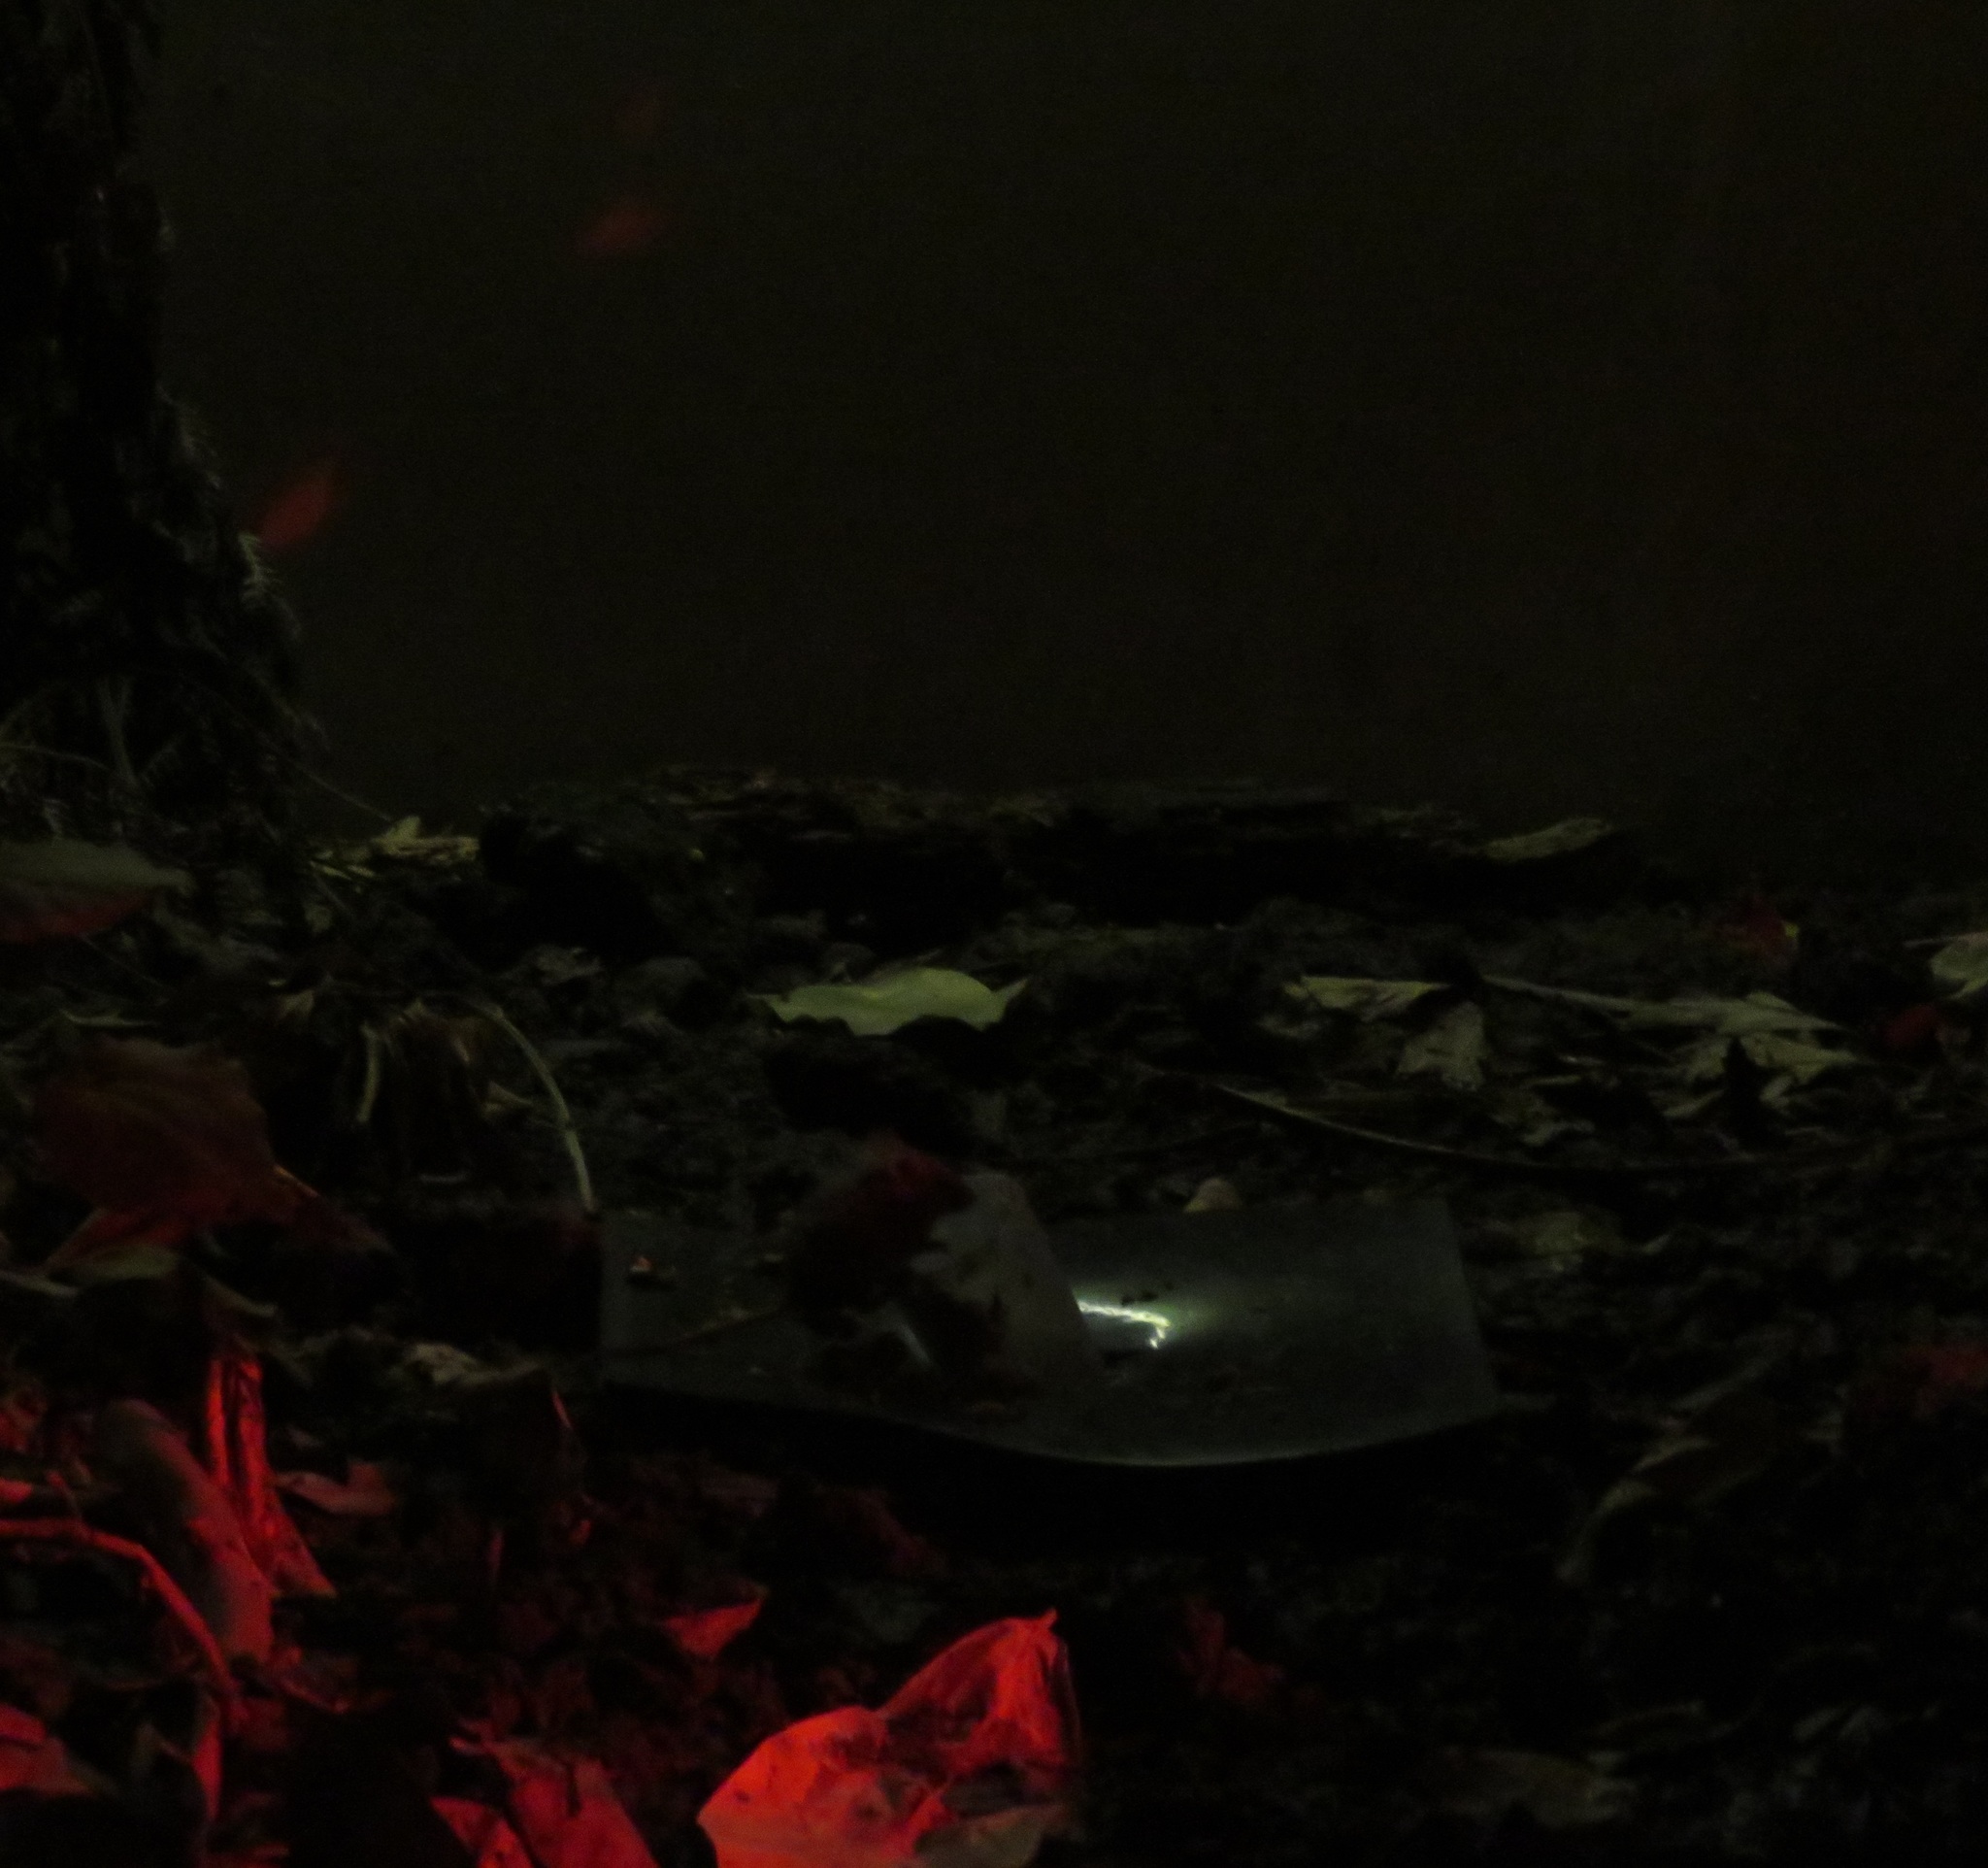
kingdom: Animalia
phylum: Chordata
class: Mammalia
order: Rodentia
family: Muridae
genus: Mus
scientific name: Mus musculus
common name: House mouse
